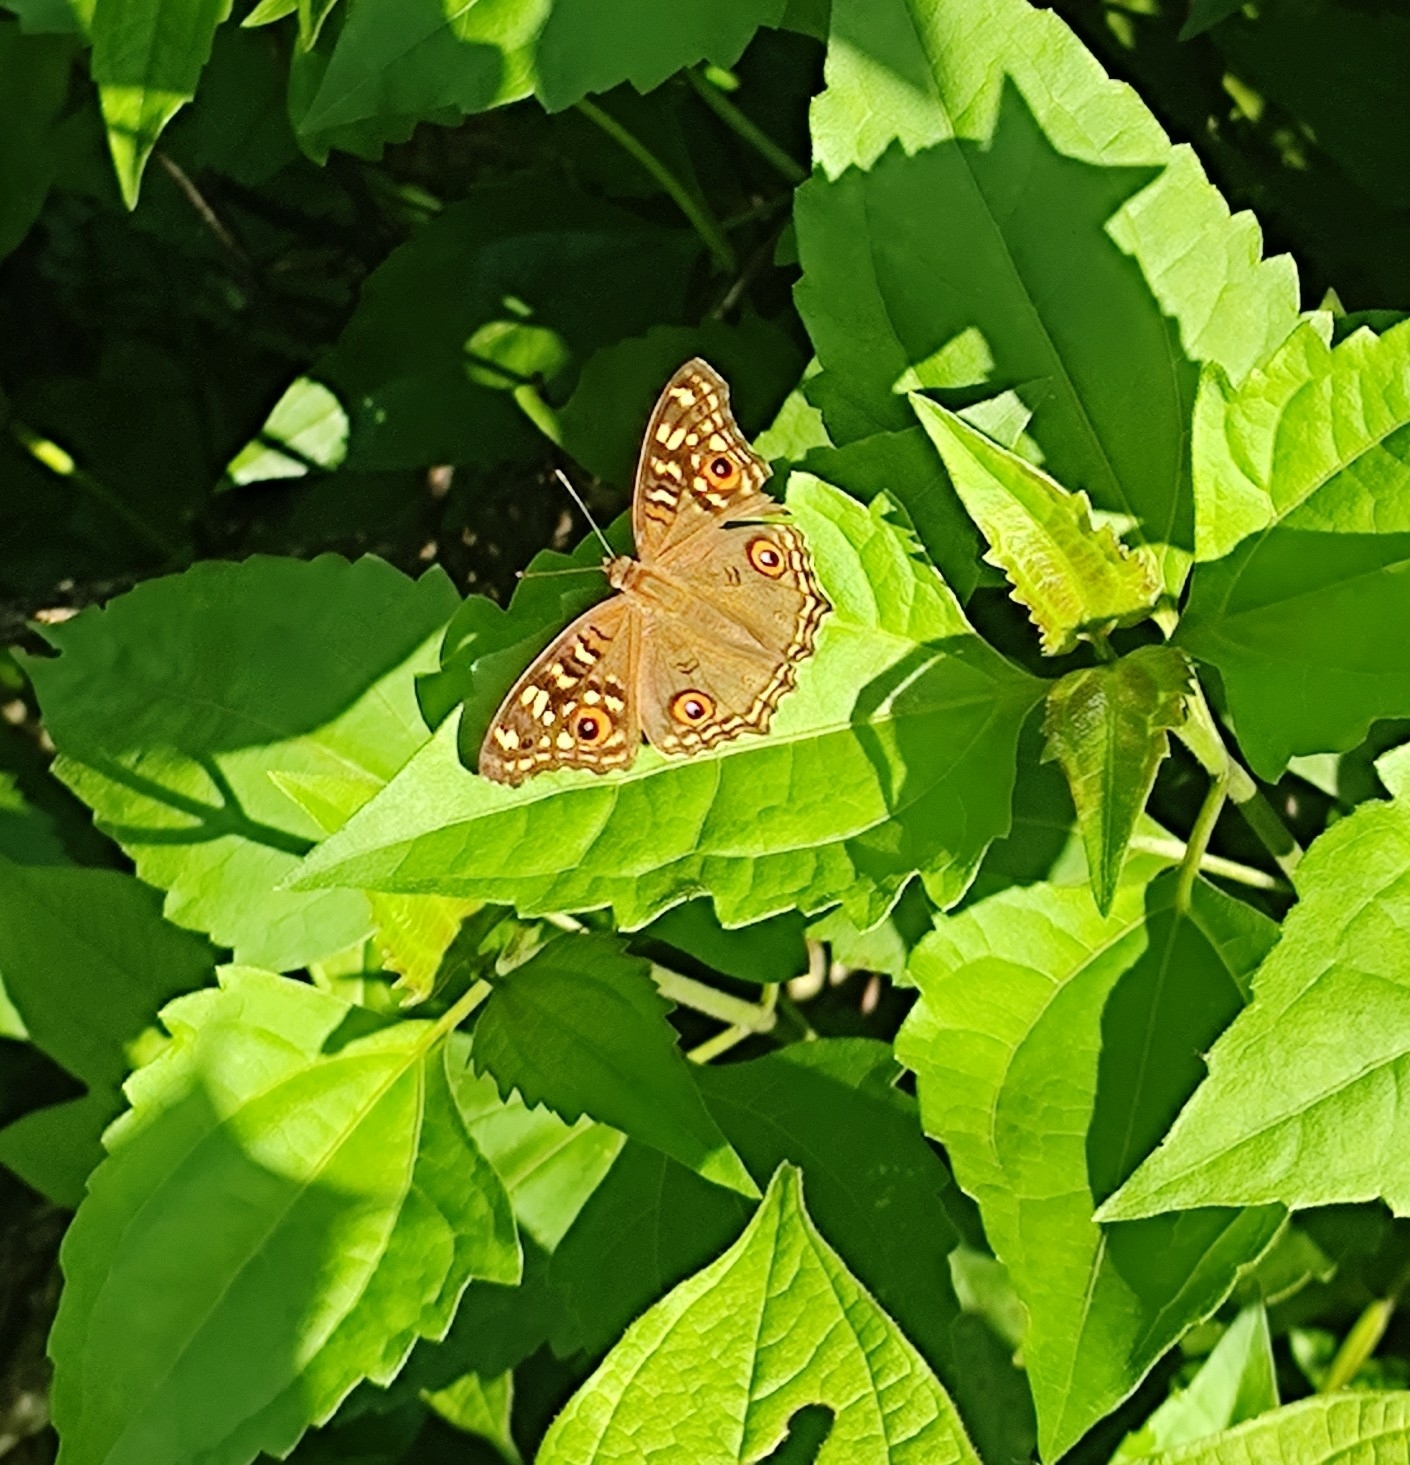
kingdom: Animalia
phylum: Arthropoda
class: Insecta
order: Lepidoptera
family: Nymphalidae
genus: Junonia
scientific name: Junonia lemonias
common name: Lemon pansy
